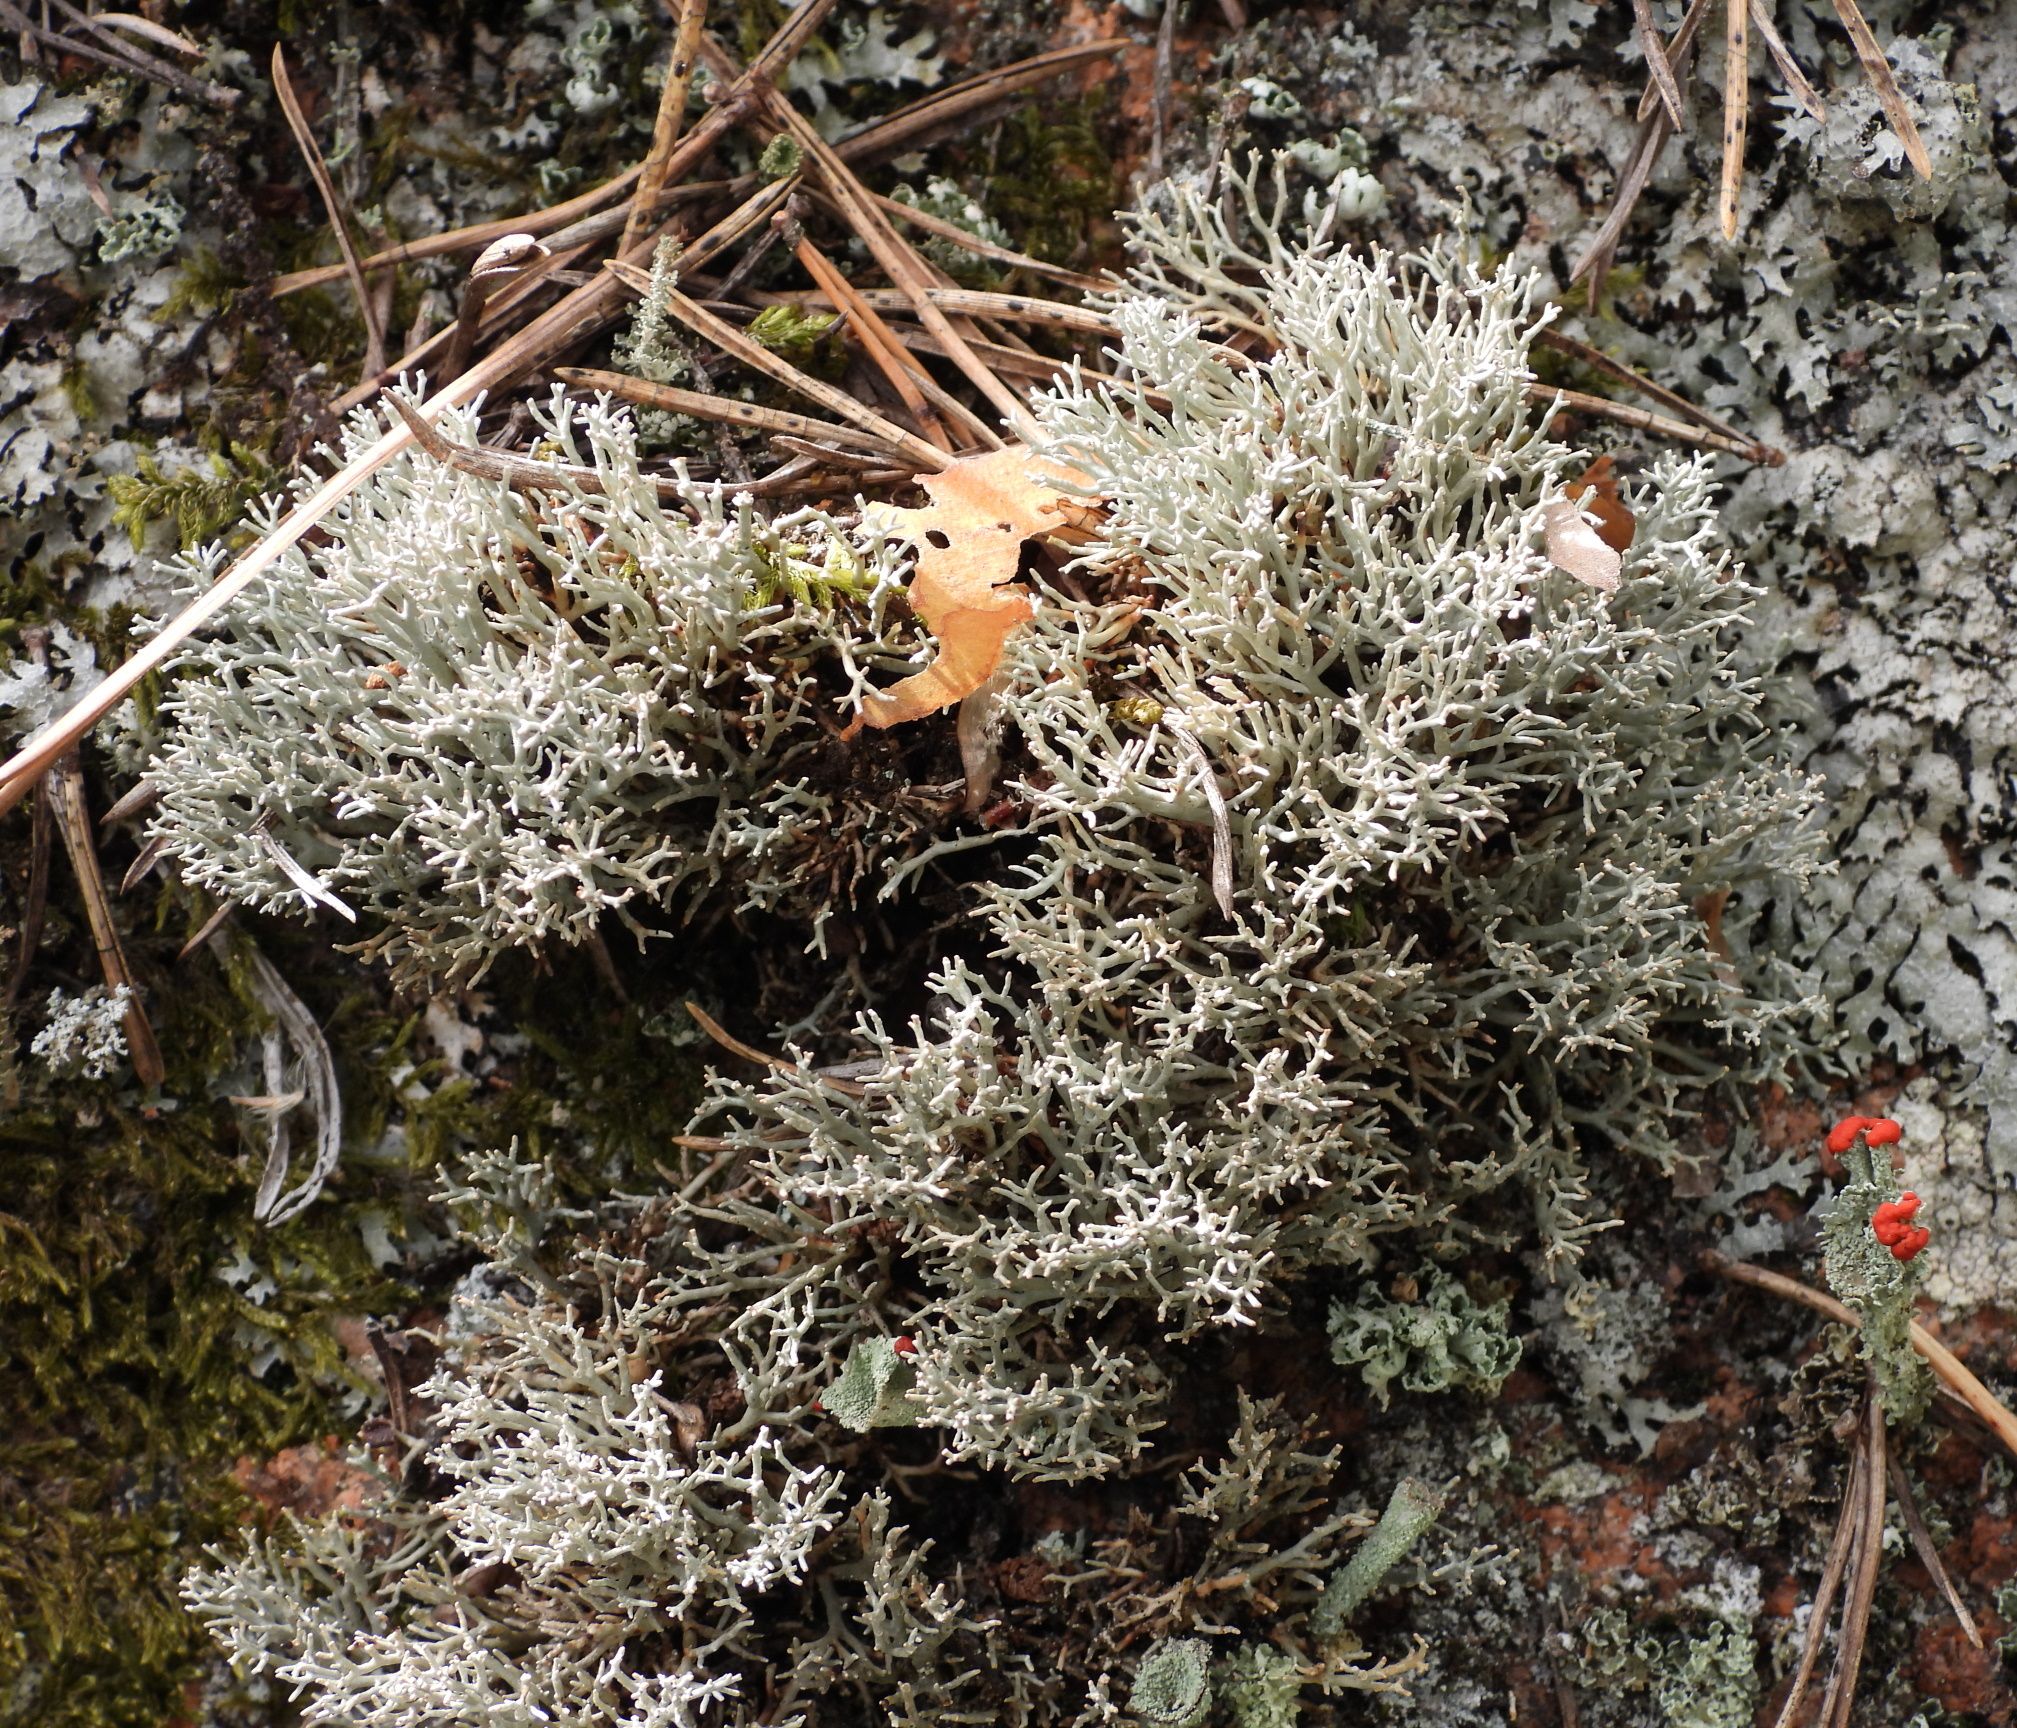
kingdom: Fungi
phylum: Ascomycota
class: Lecanoromycetes
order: Lecanorales
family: Sphaerophoraceae
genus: Sphaerophorus
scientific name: Sphaerophorus fragilis
